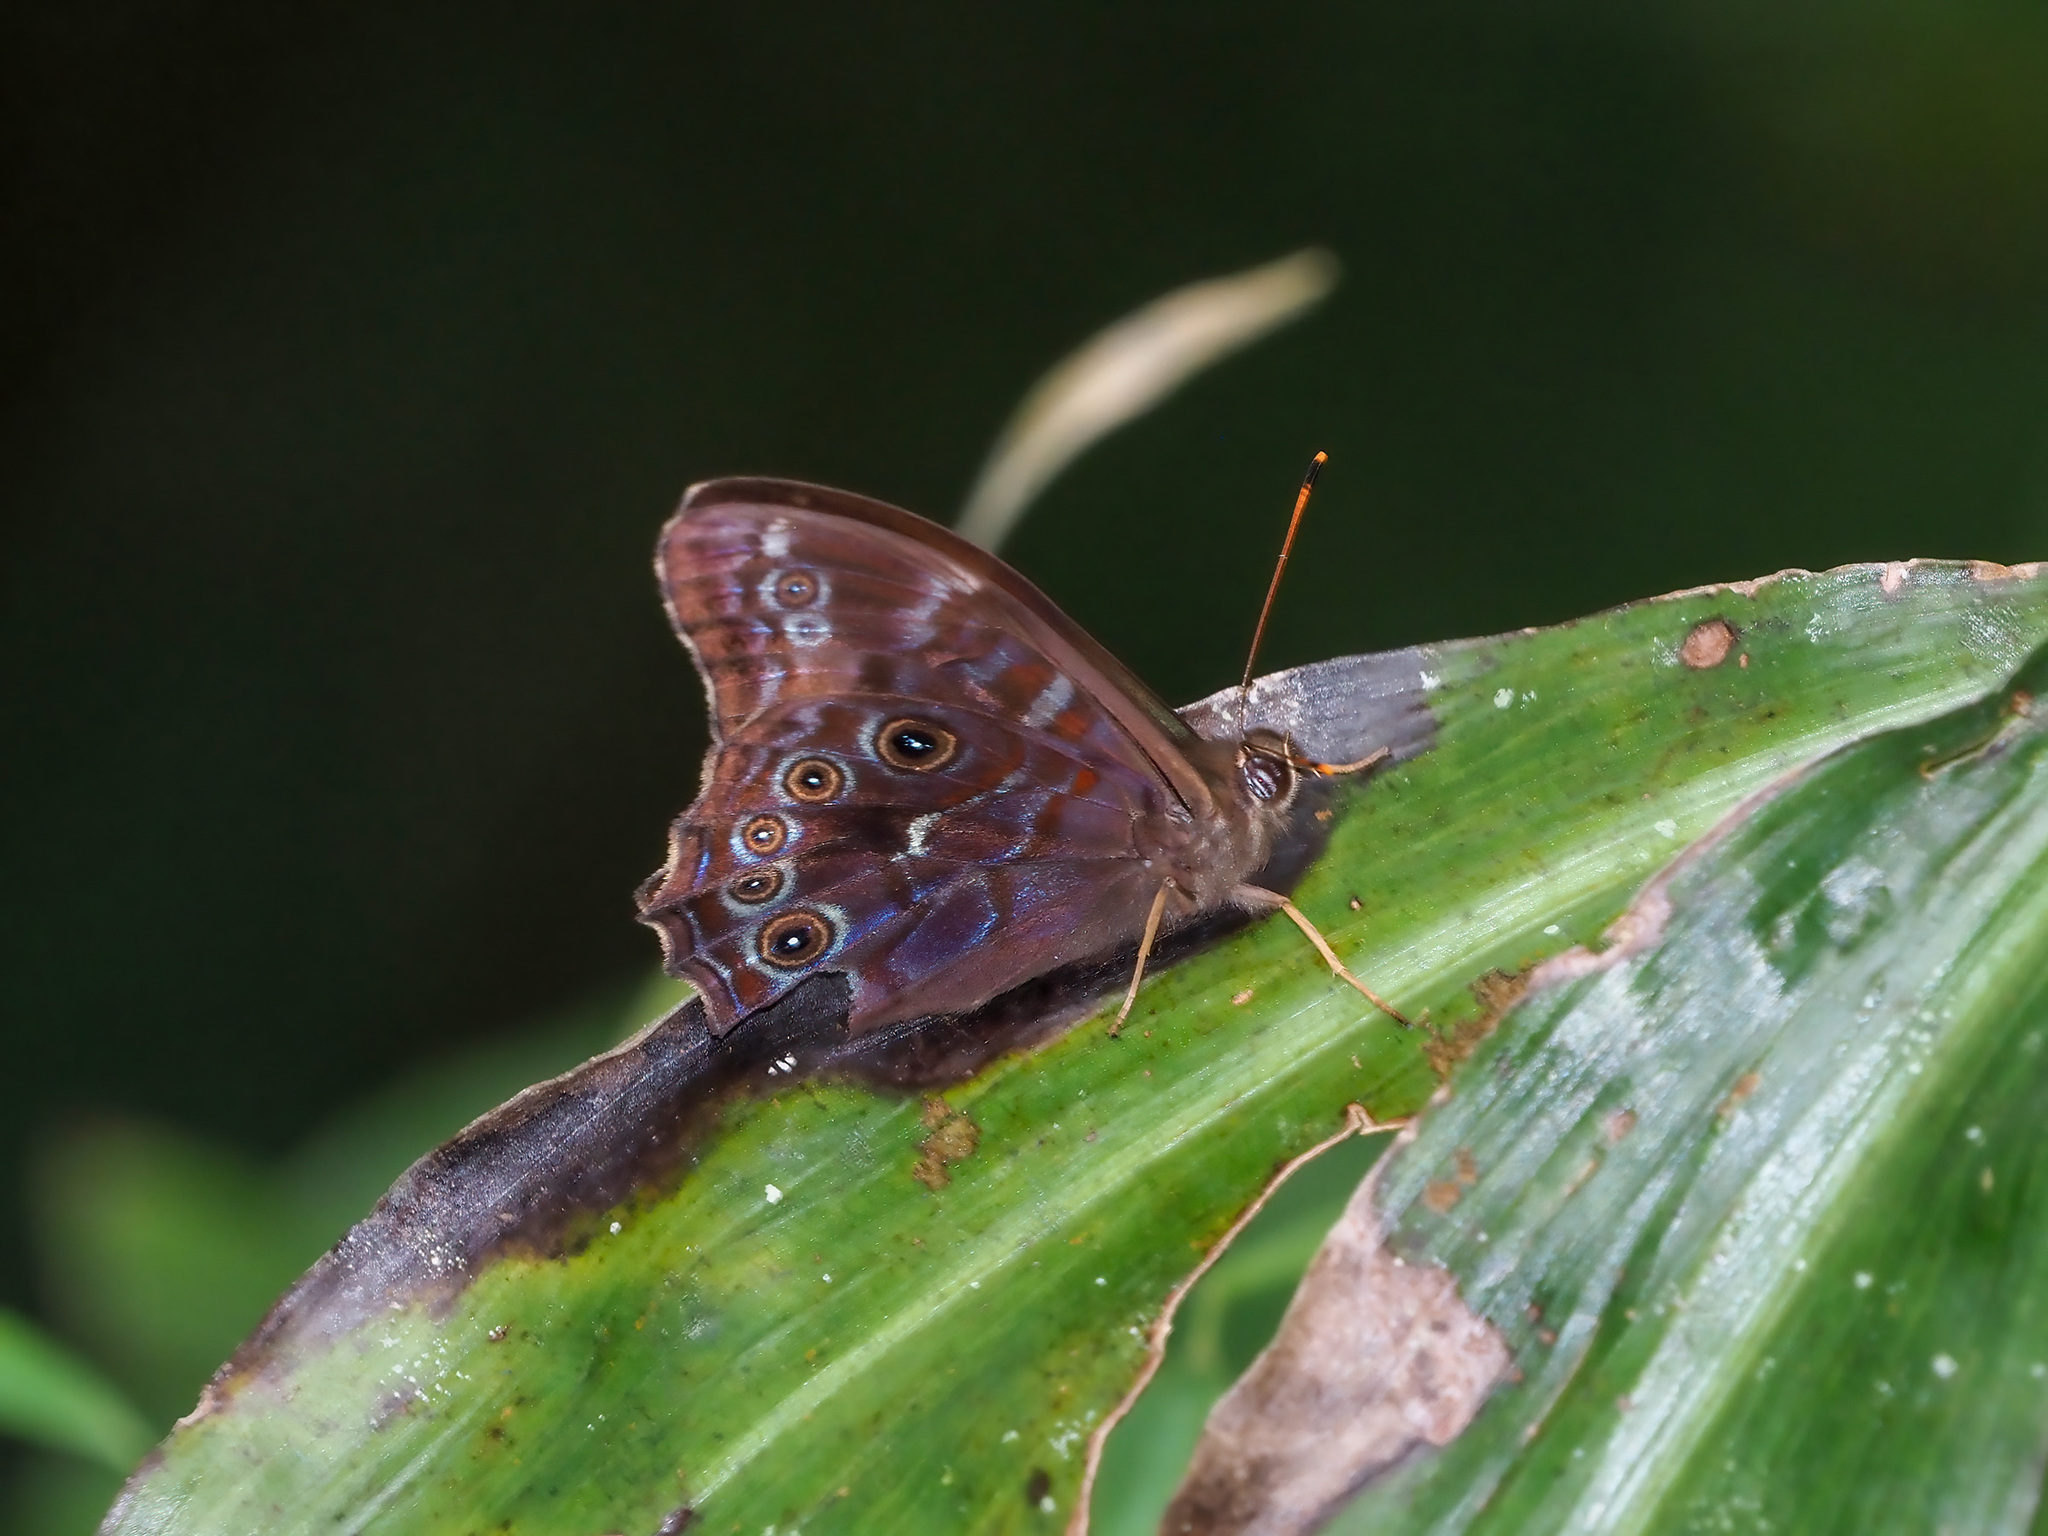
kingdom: Animalia
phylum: Arthropoda
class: Insecta
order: Lepidoptera
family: Nymphalidae
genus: Lethe
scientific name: Lethe perimede
